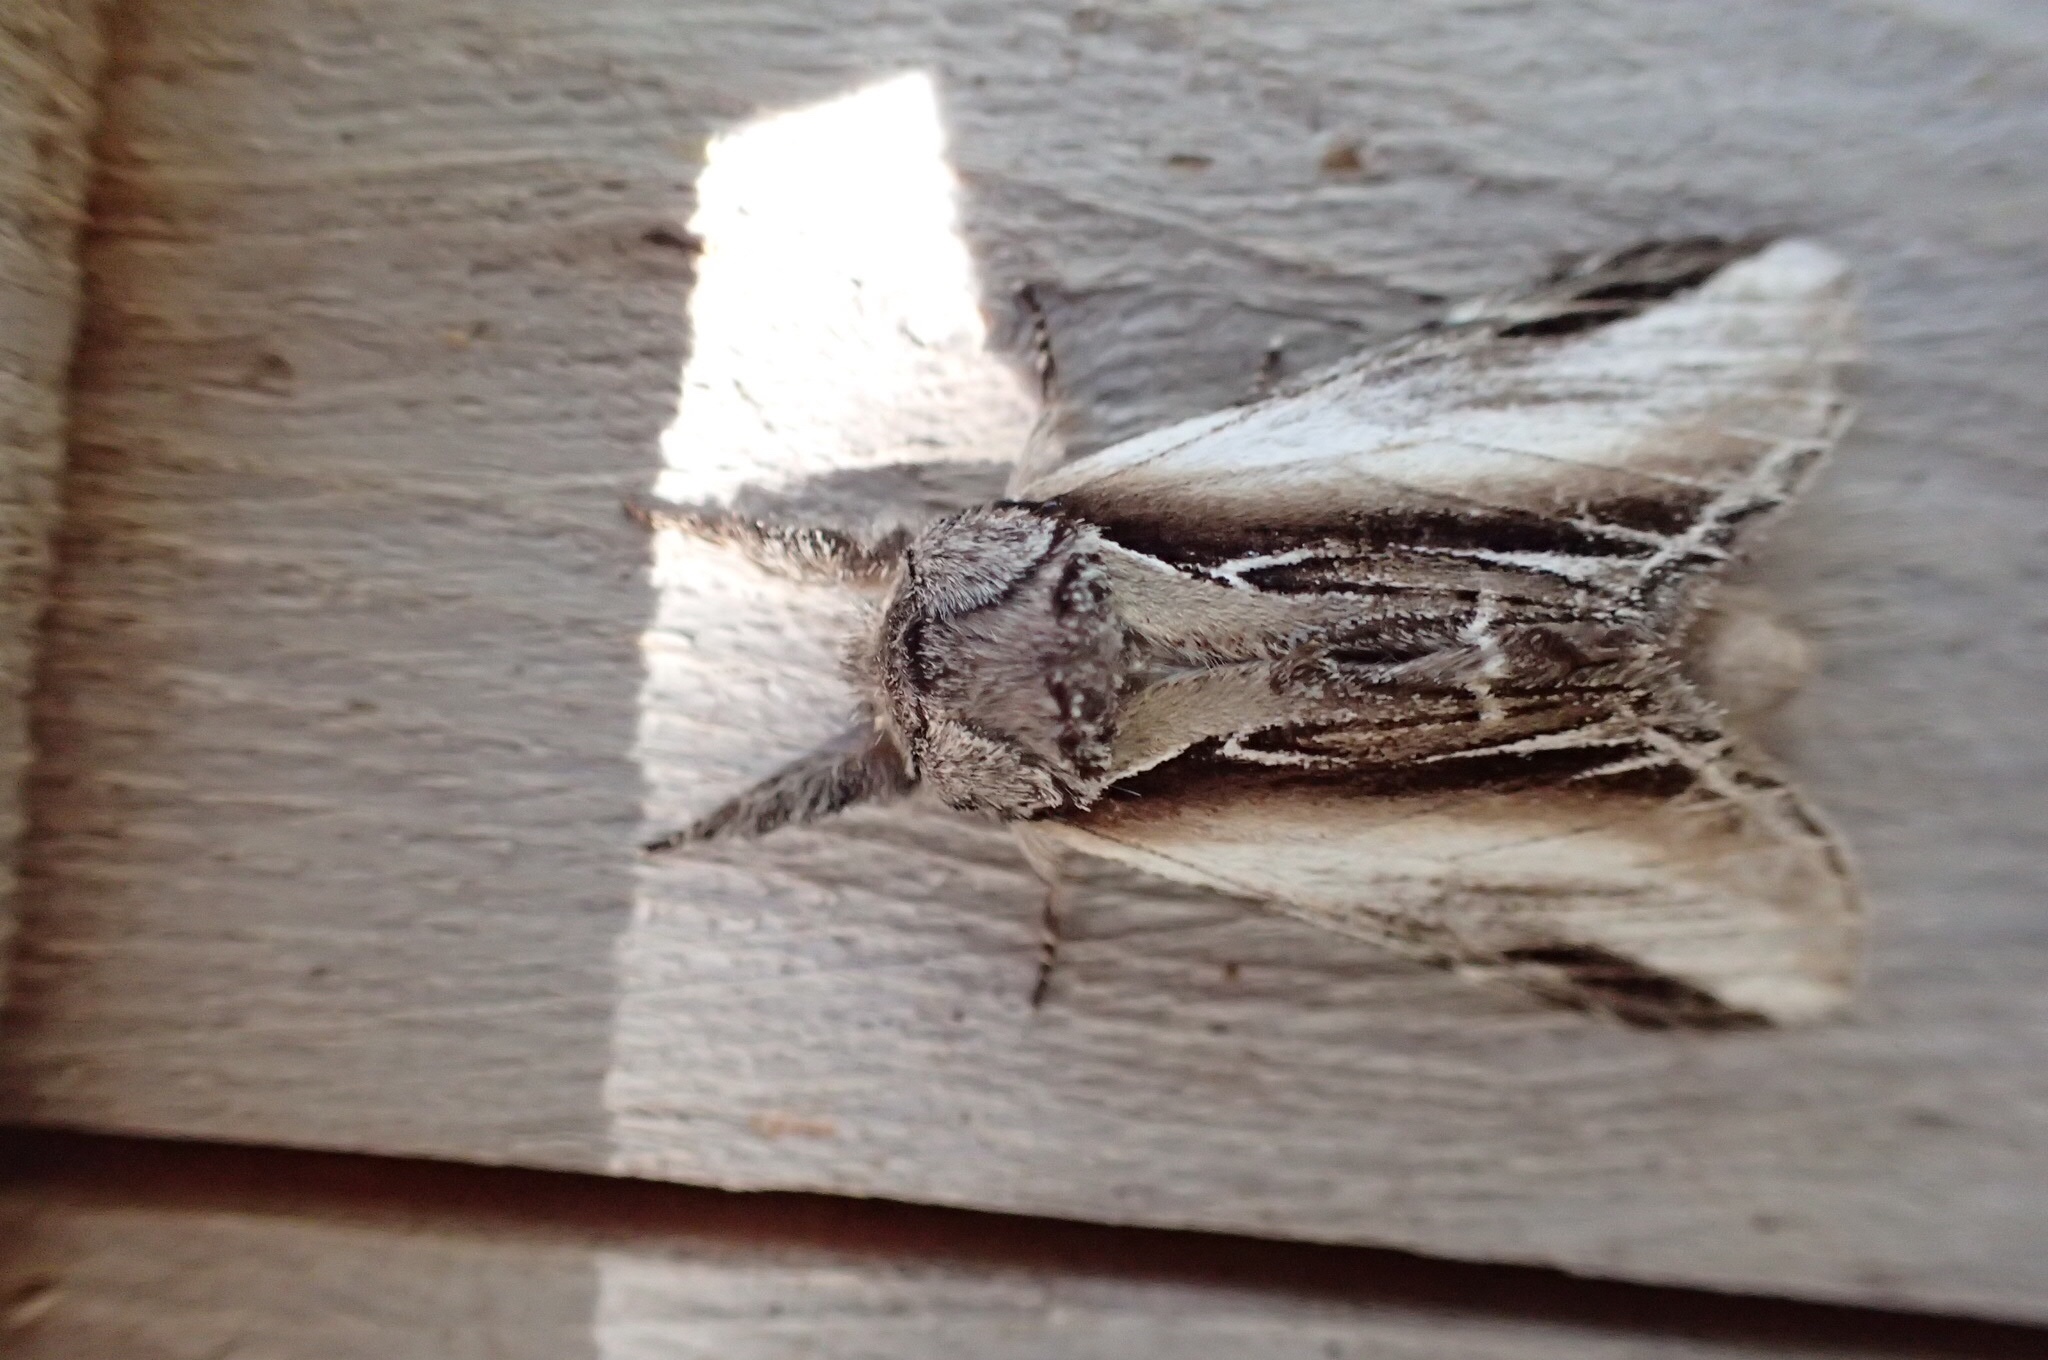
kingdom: Animalia
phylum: Arthropoda
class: Insecta
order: Lepidoptera
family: Notodontidae
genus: Pheosia
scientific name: Pheosia rimosa
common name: Black-rimmed prominent
